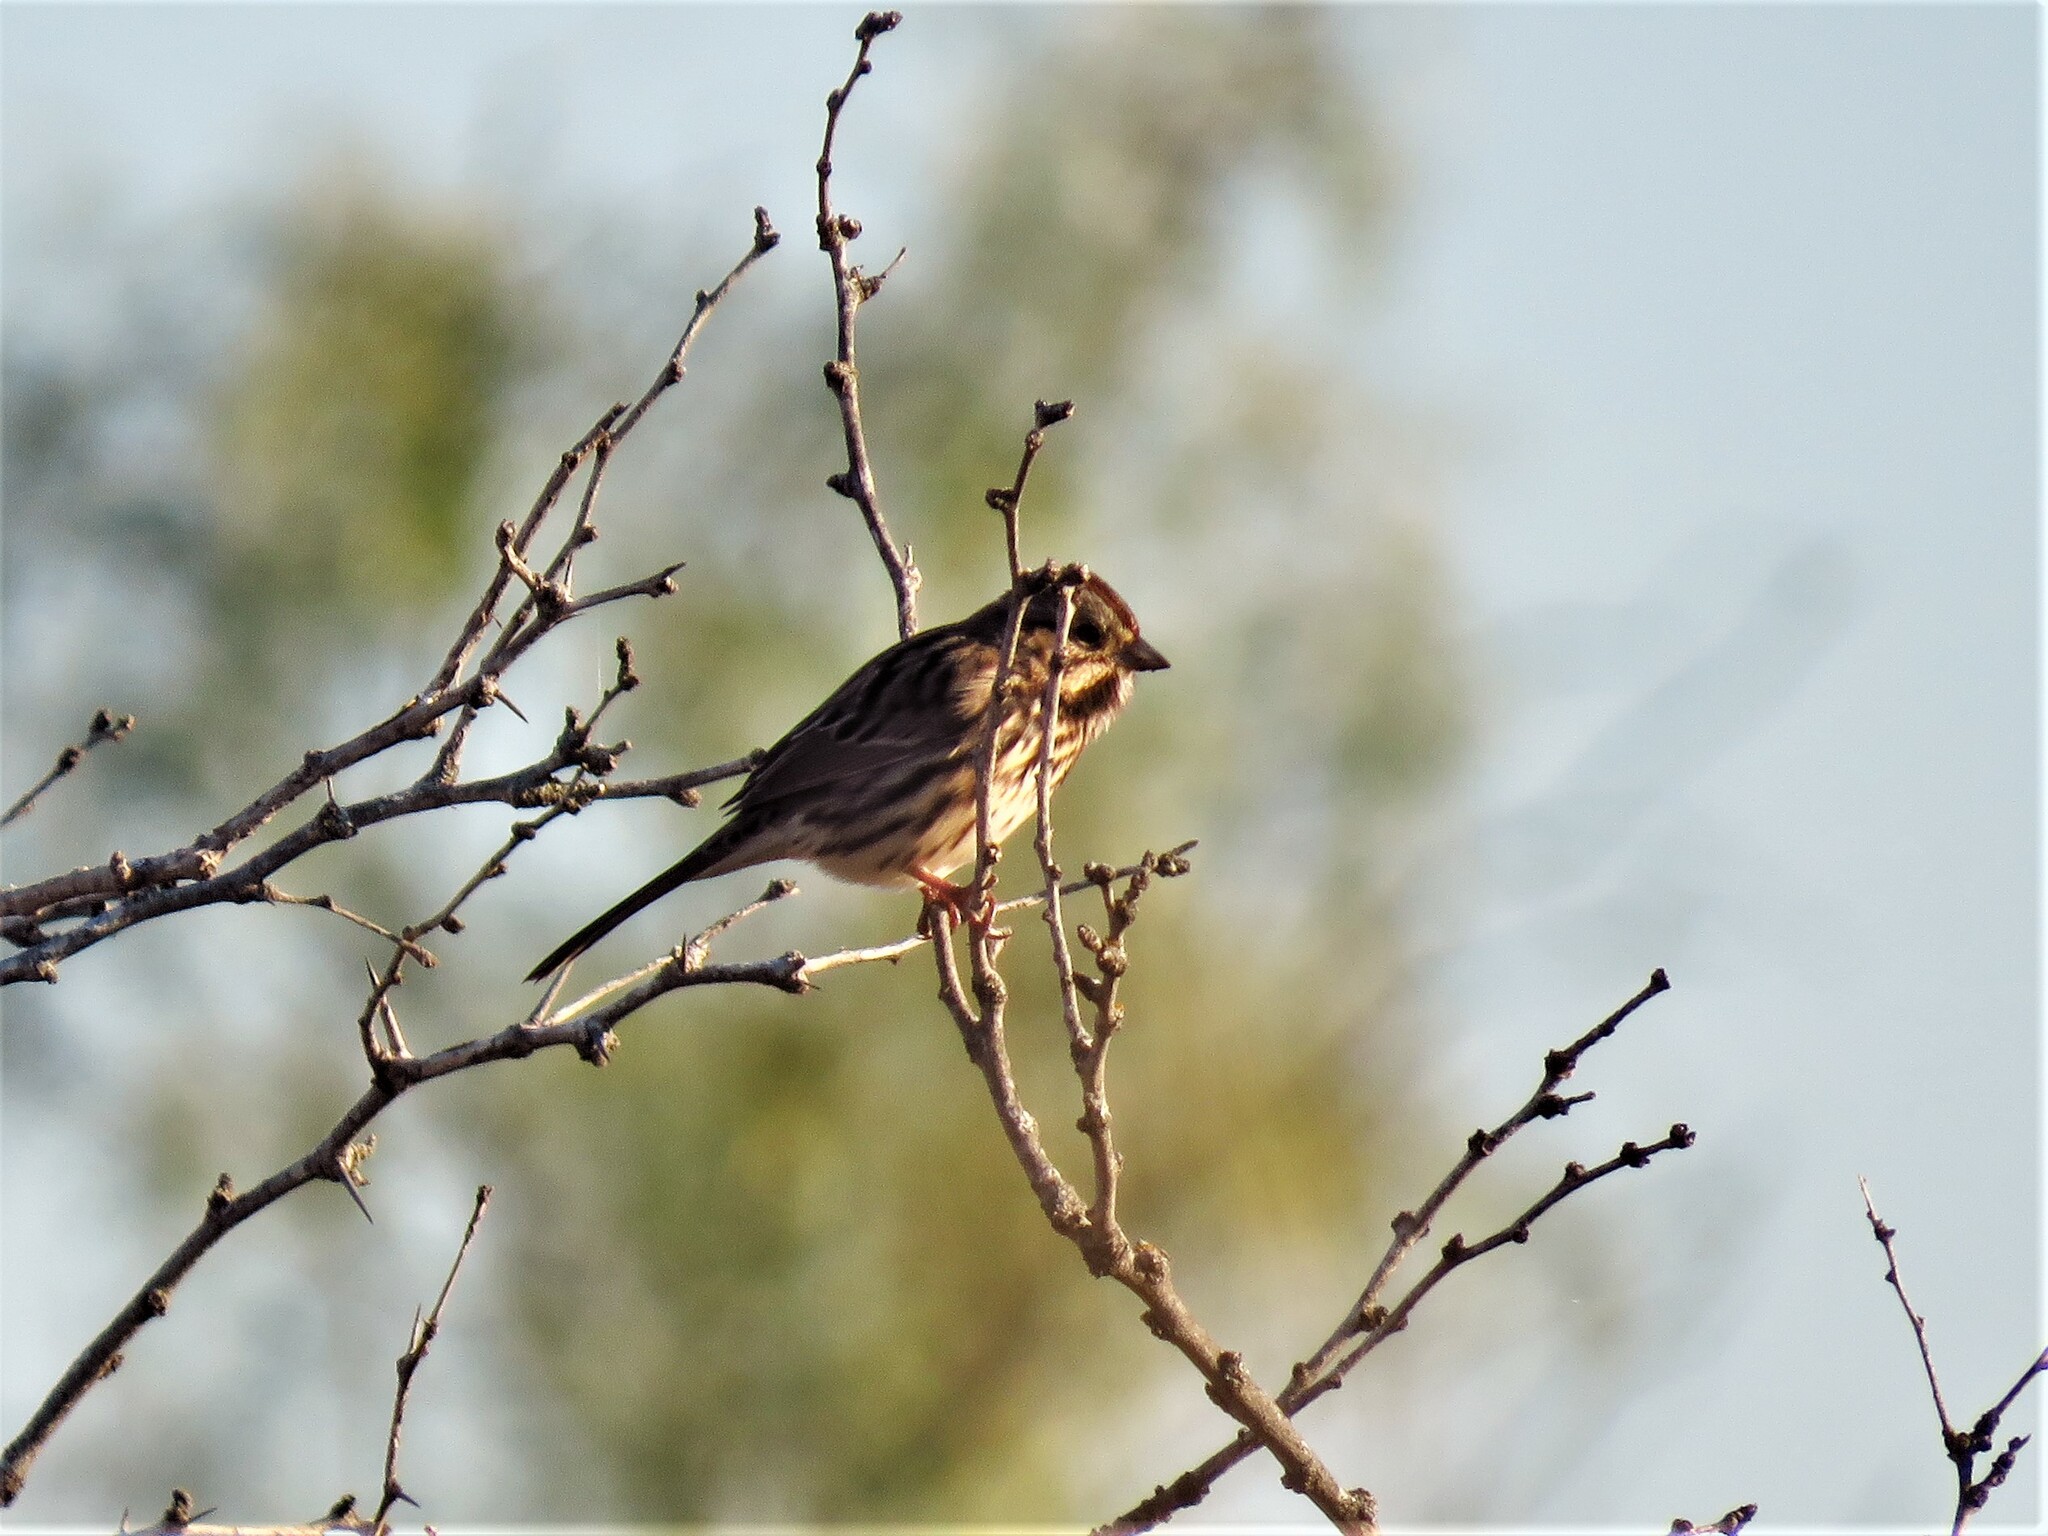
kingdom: Animalia
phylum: Chordata
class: Aves
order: Passeriformes
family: Passerellidae
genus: Melospiza
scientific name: Melospiza melodia
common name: Song sparrow
